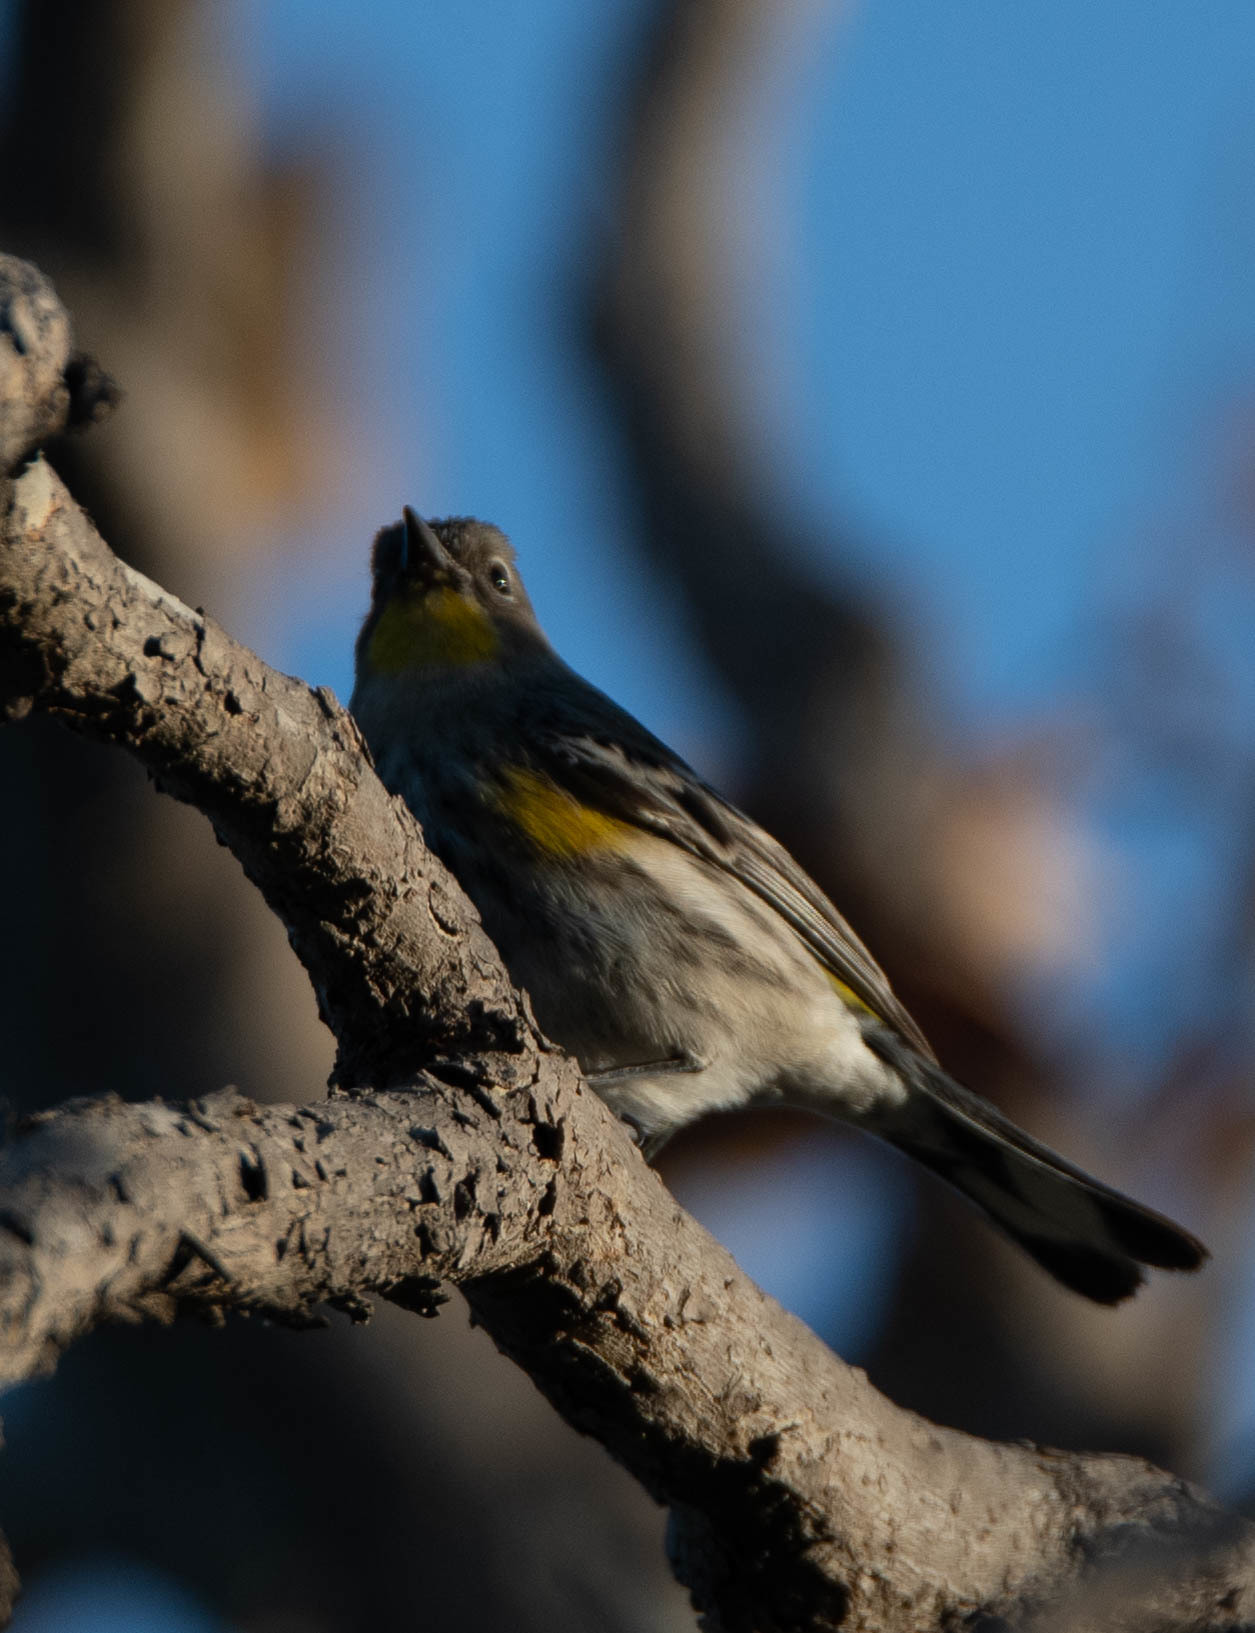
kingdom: Animalia
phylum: Chordata
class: Aves
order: Passeriformes
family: Parulidae
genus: Setophaga
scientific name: Setophaga auduboni
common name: Audubon's warbler
